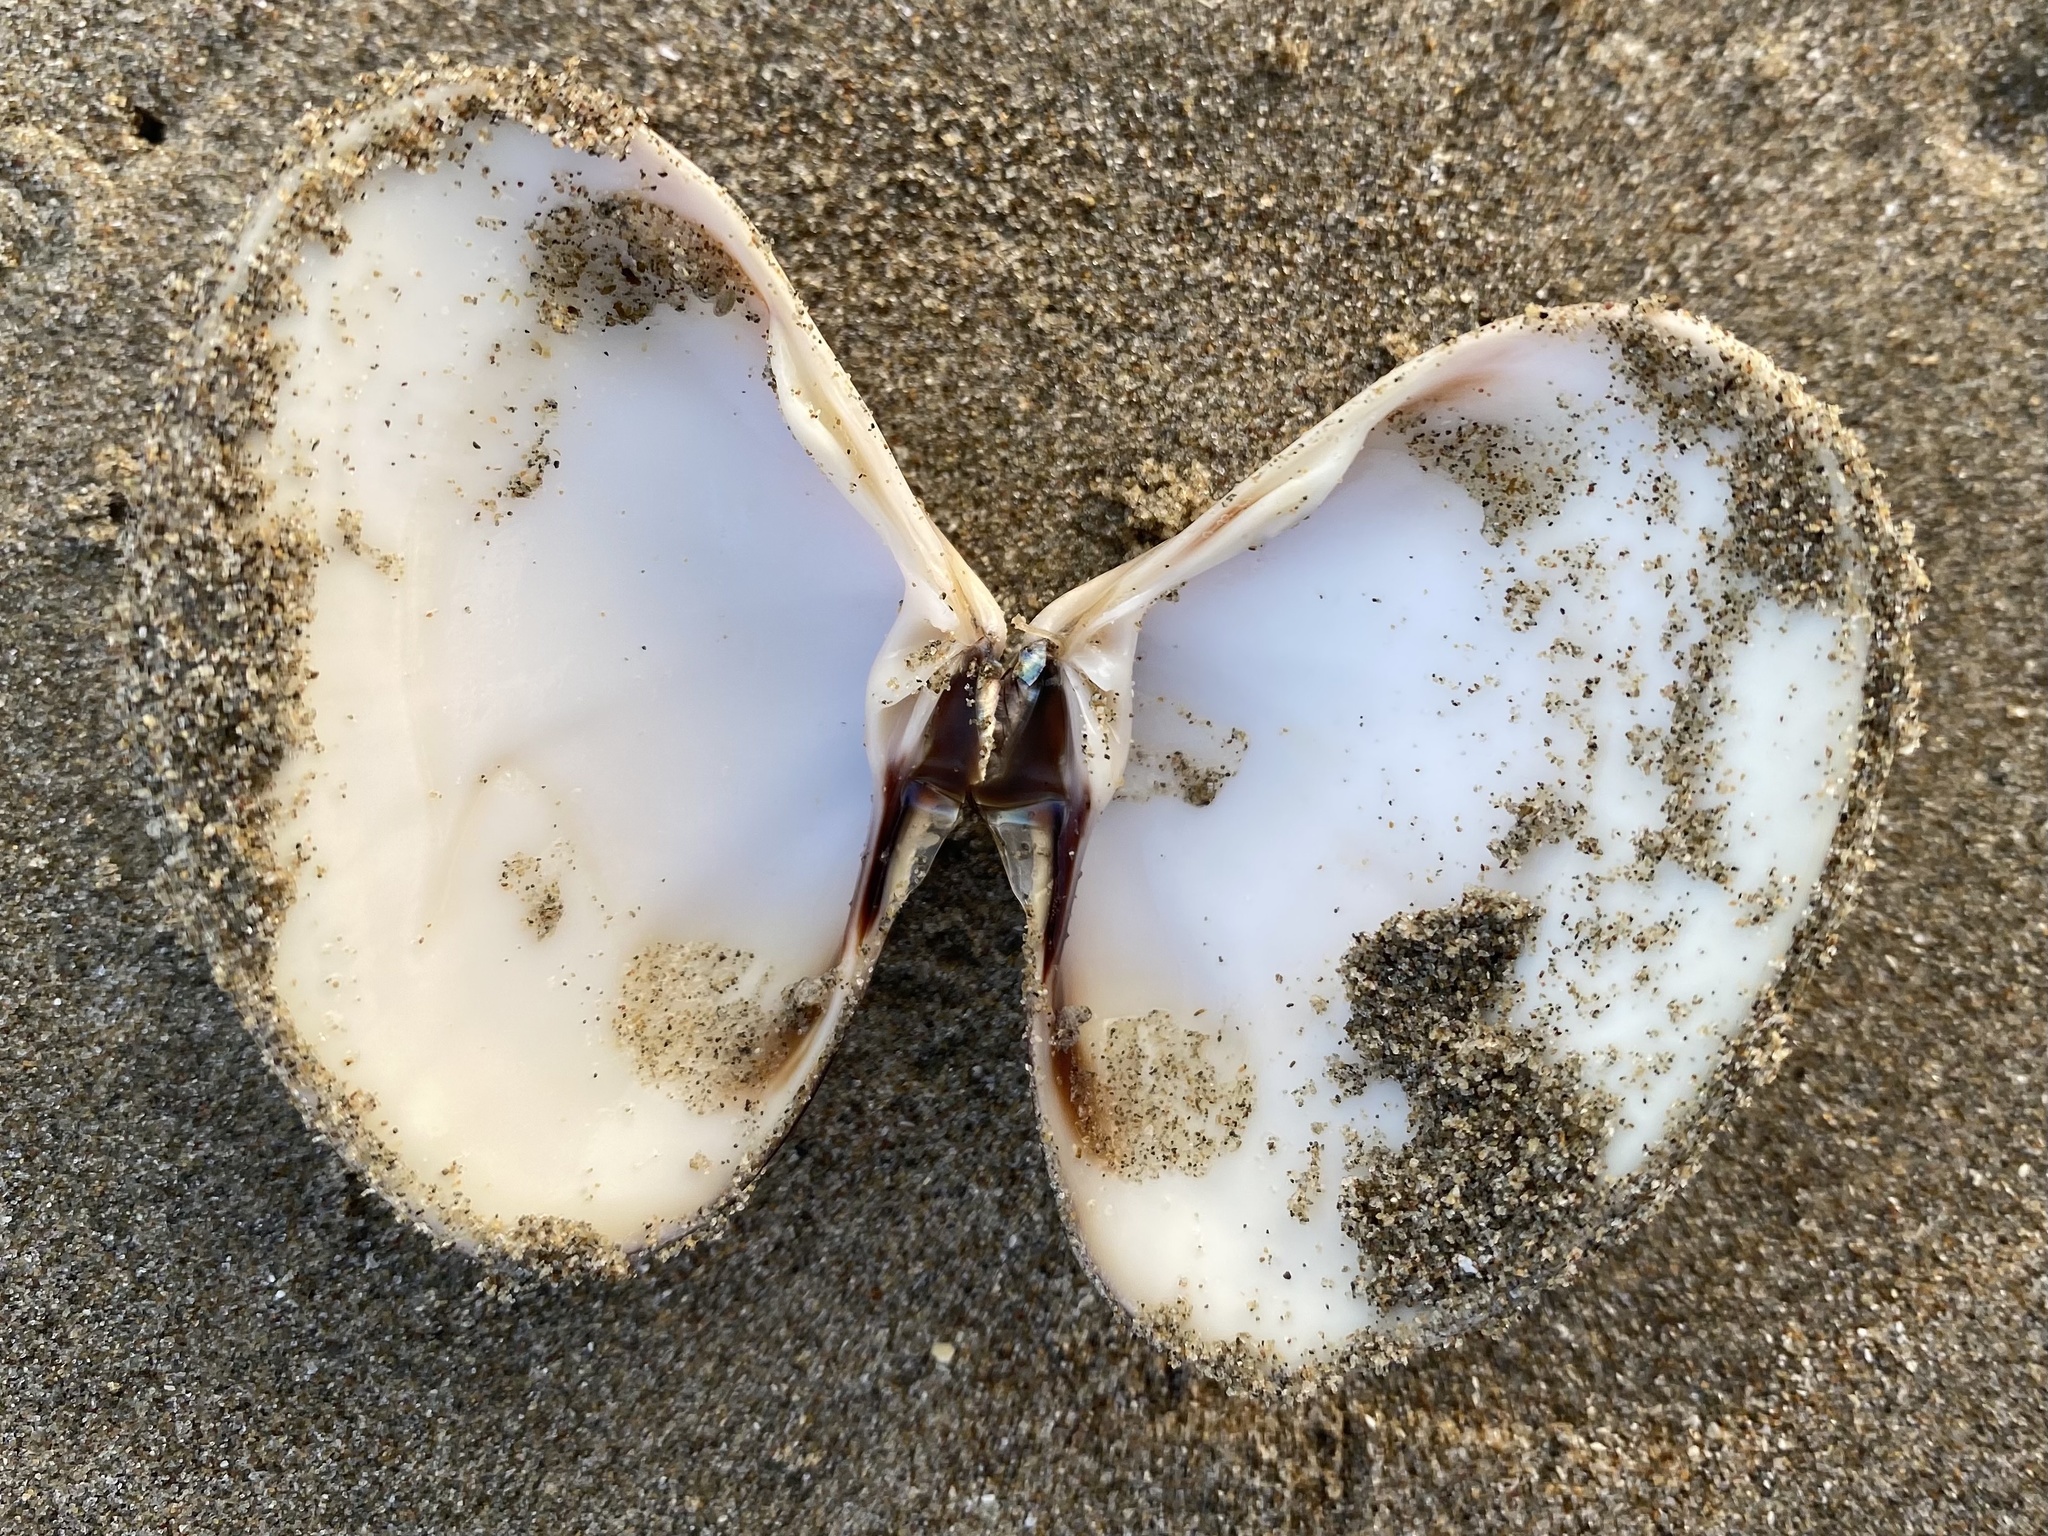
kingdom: Animalia
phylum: Mollusca
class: Bivalvia
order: Venerida
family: Veneridae
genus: Tivela
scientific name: Tivela stultorum
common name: Pismo clam
